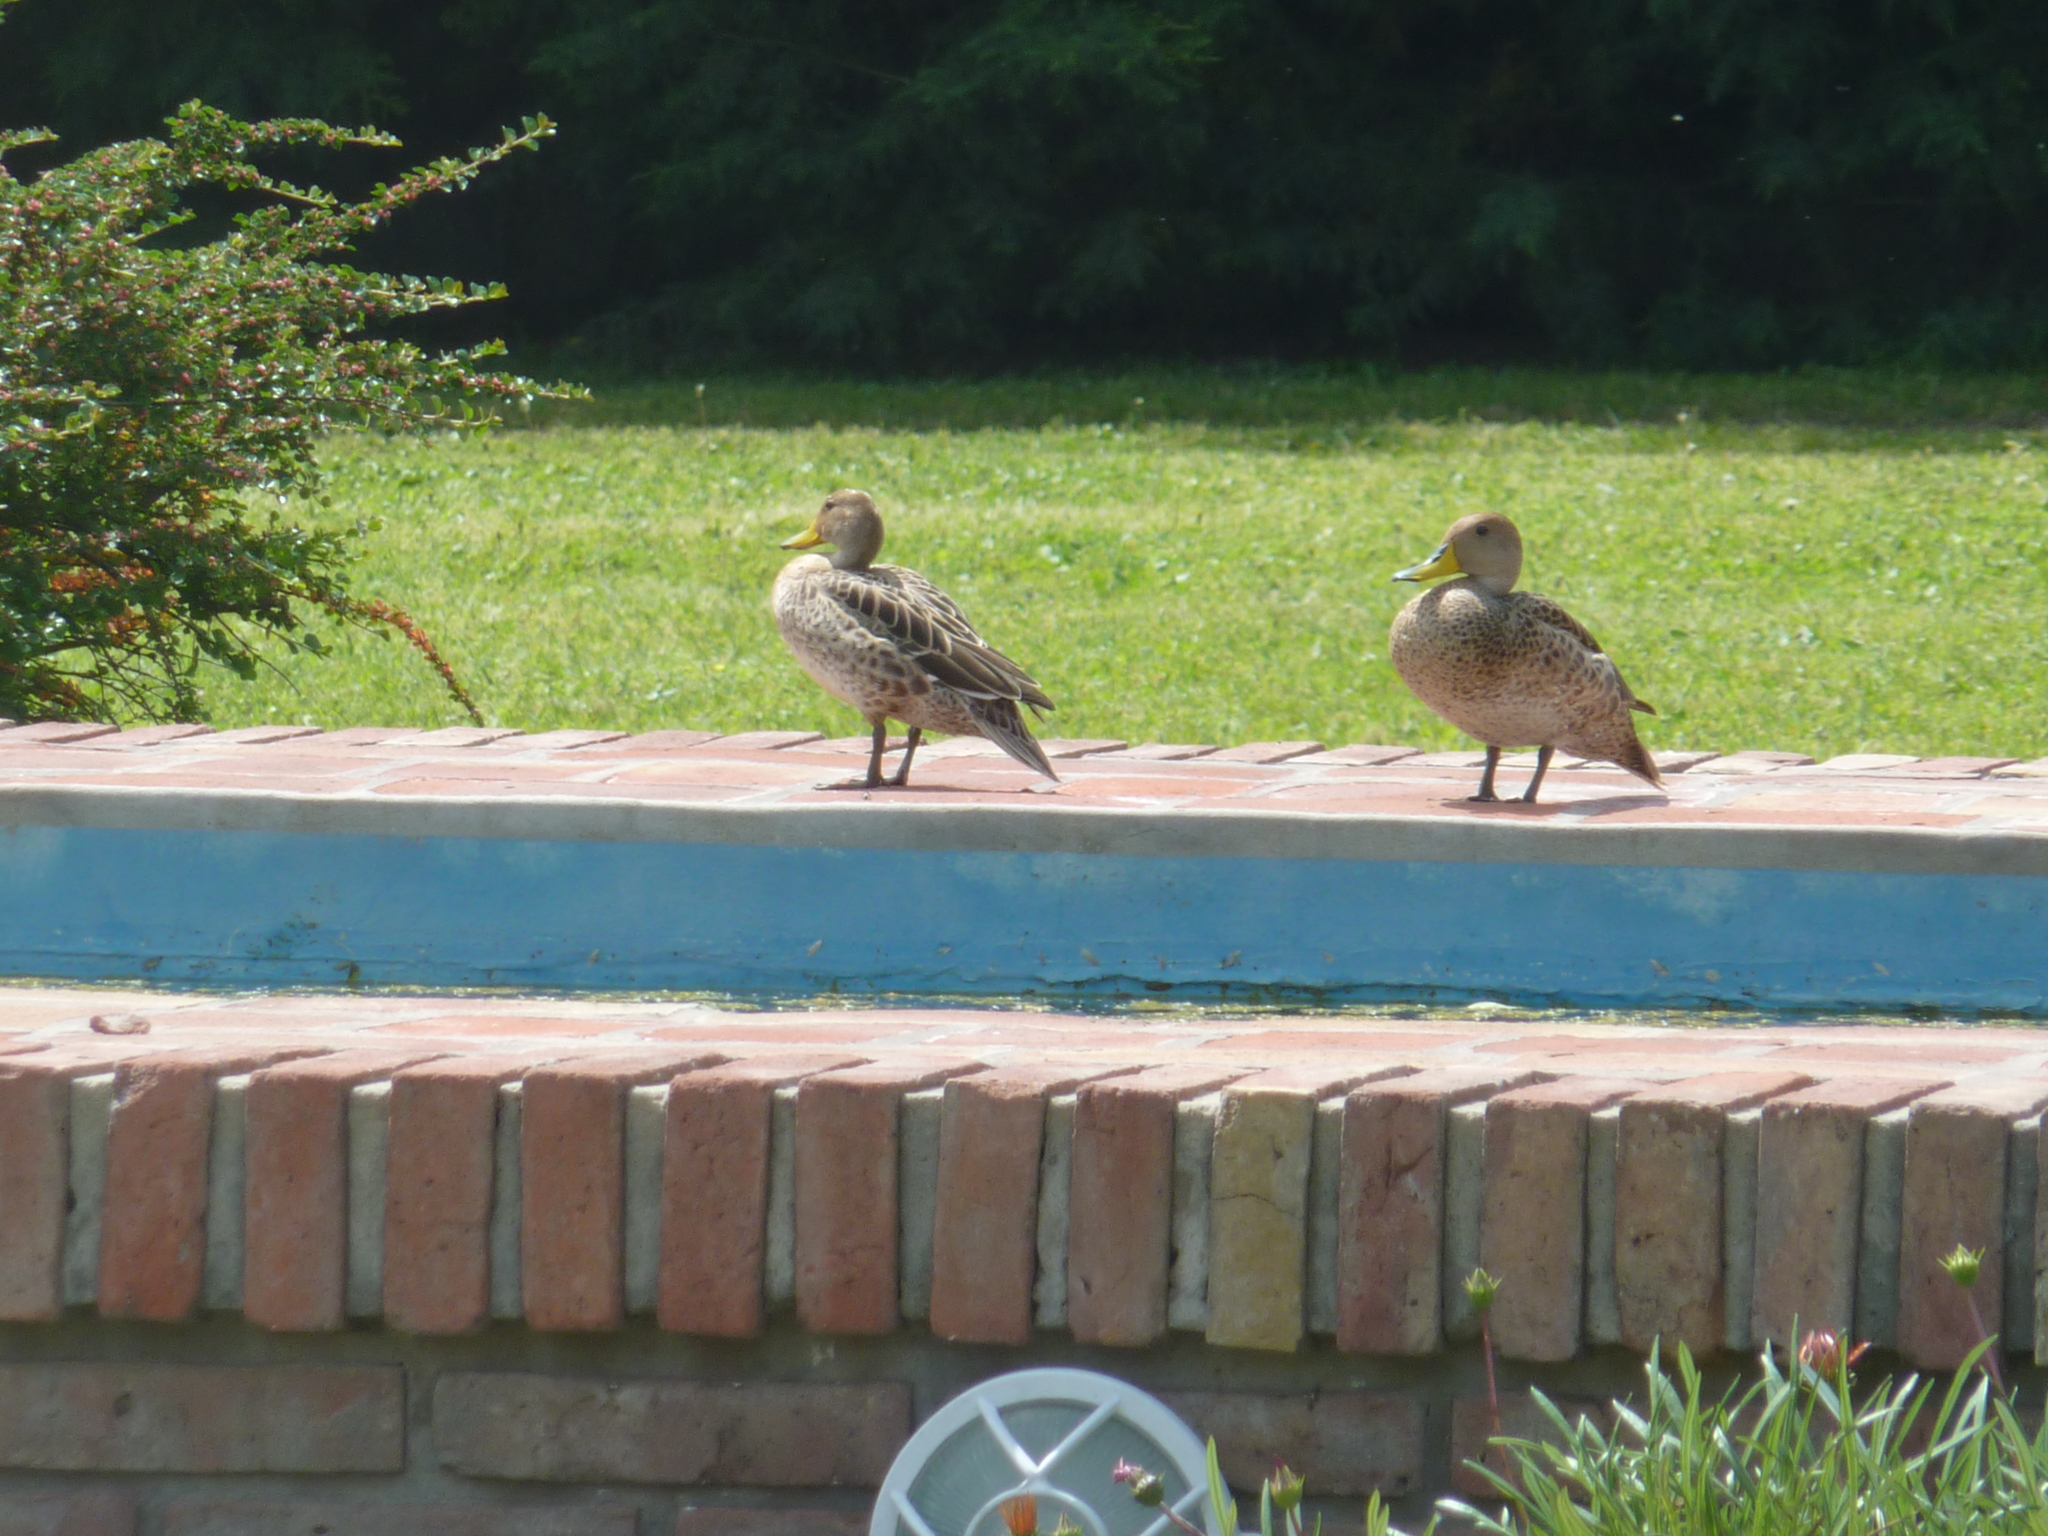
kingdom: Animalia
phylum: Chordata
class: Aves
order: Anseriformes
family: Anatidae
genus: Anas
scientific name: Anas georgica
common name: Yellow-billed pintail
